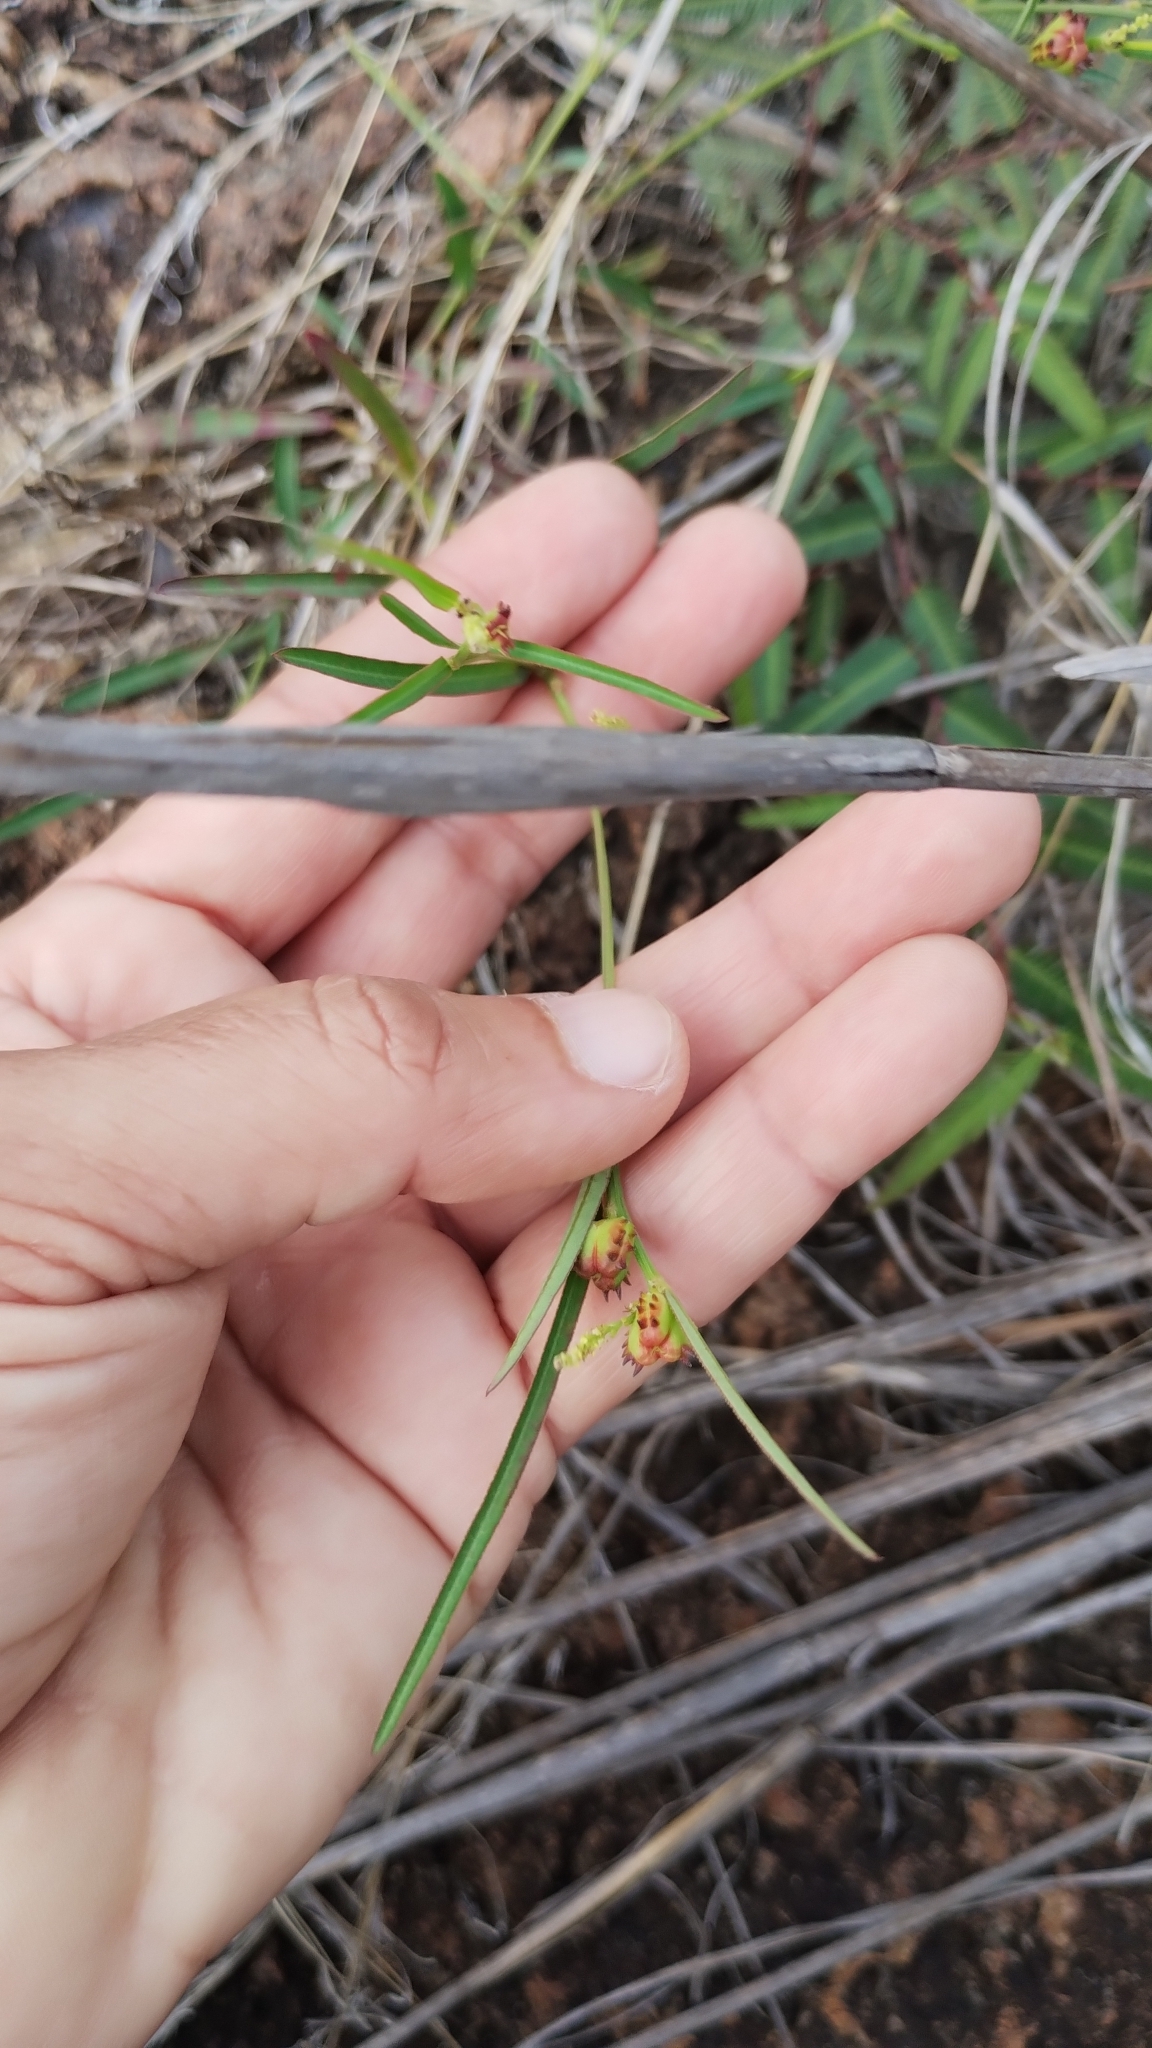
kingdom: Plantae
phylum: Tracheophyta
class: Magnoliopsida
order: Malpighiales
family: Euphorbiaceae
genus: Microstachys
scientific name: Microstachys chamaelea
